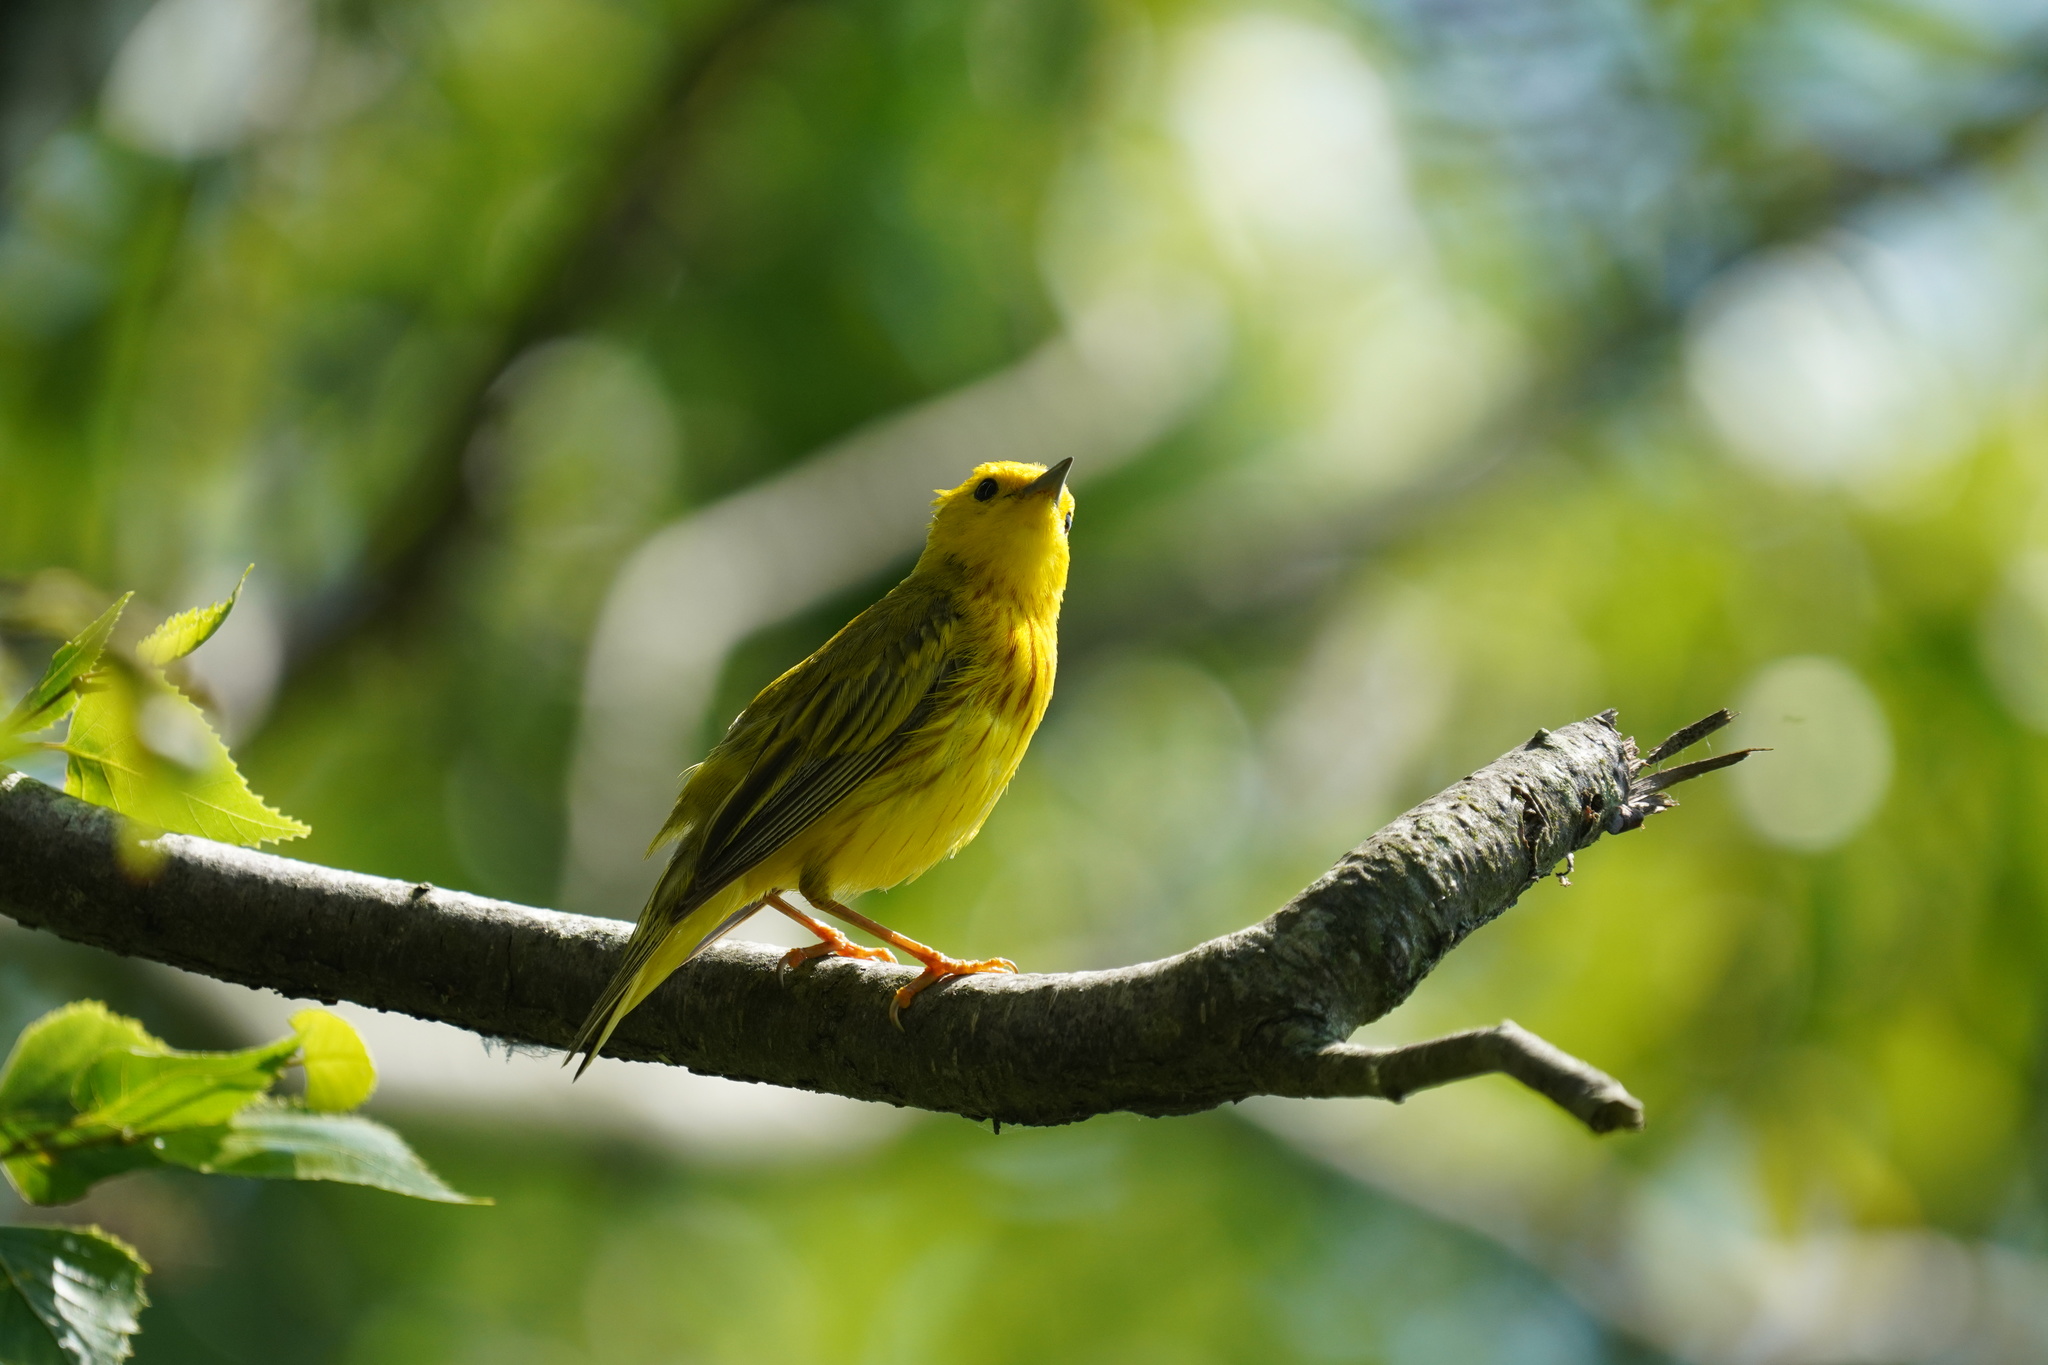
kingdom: Animalia
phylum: Chordata
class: Aves
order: Passeriformes
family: Parulidae
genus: Setophaga
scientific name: Setophaga petechia
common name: Yellow warbler
